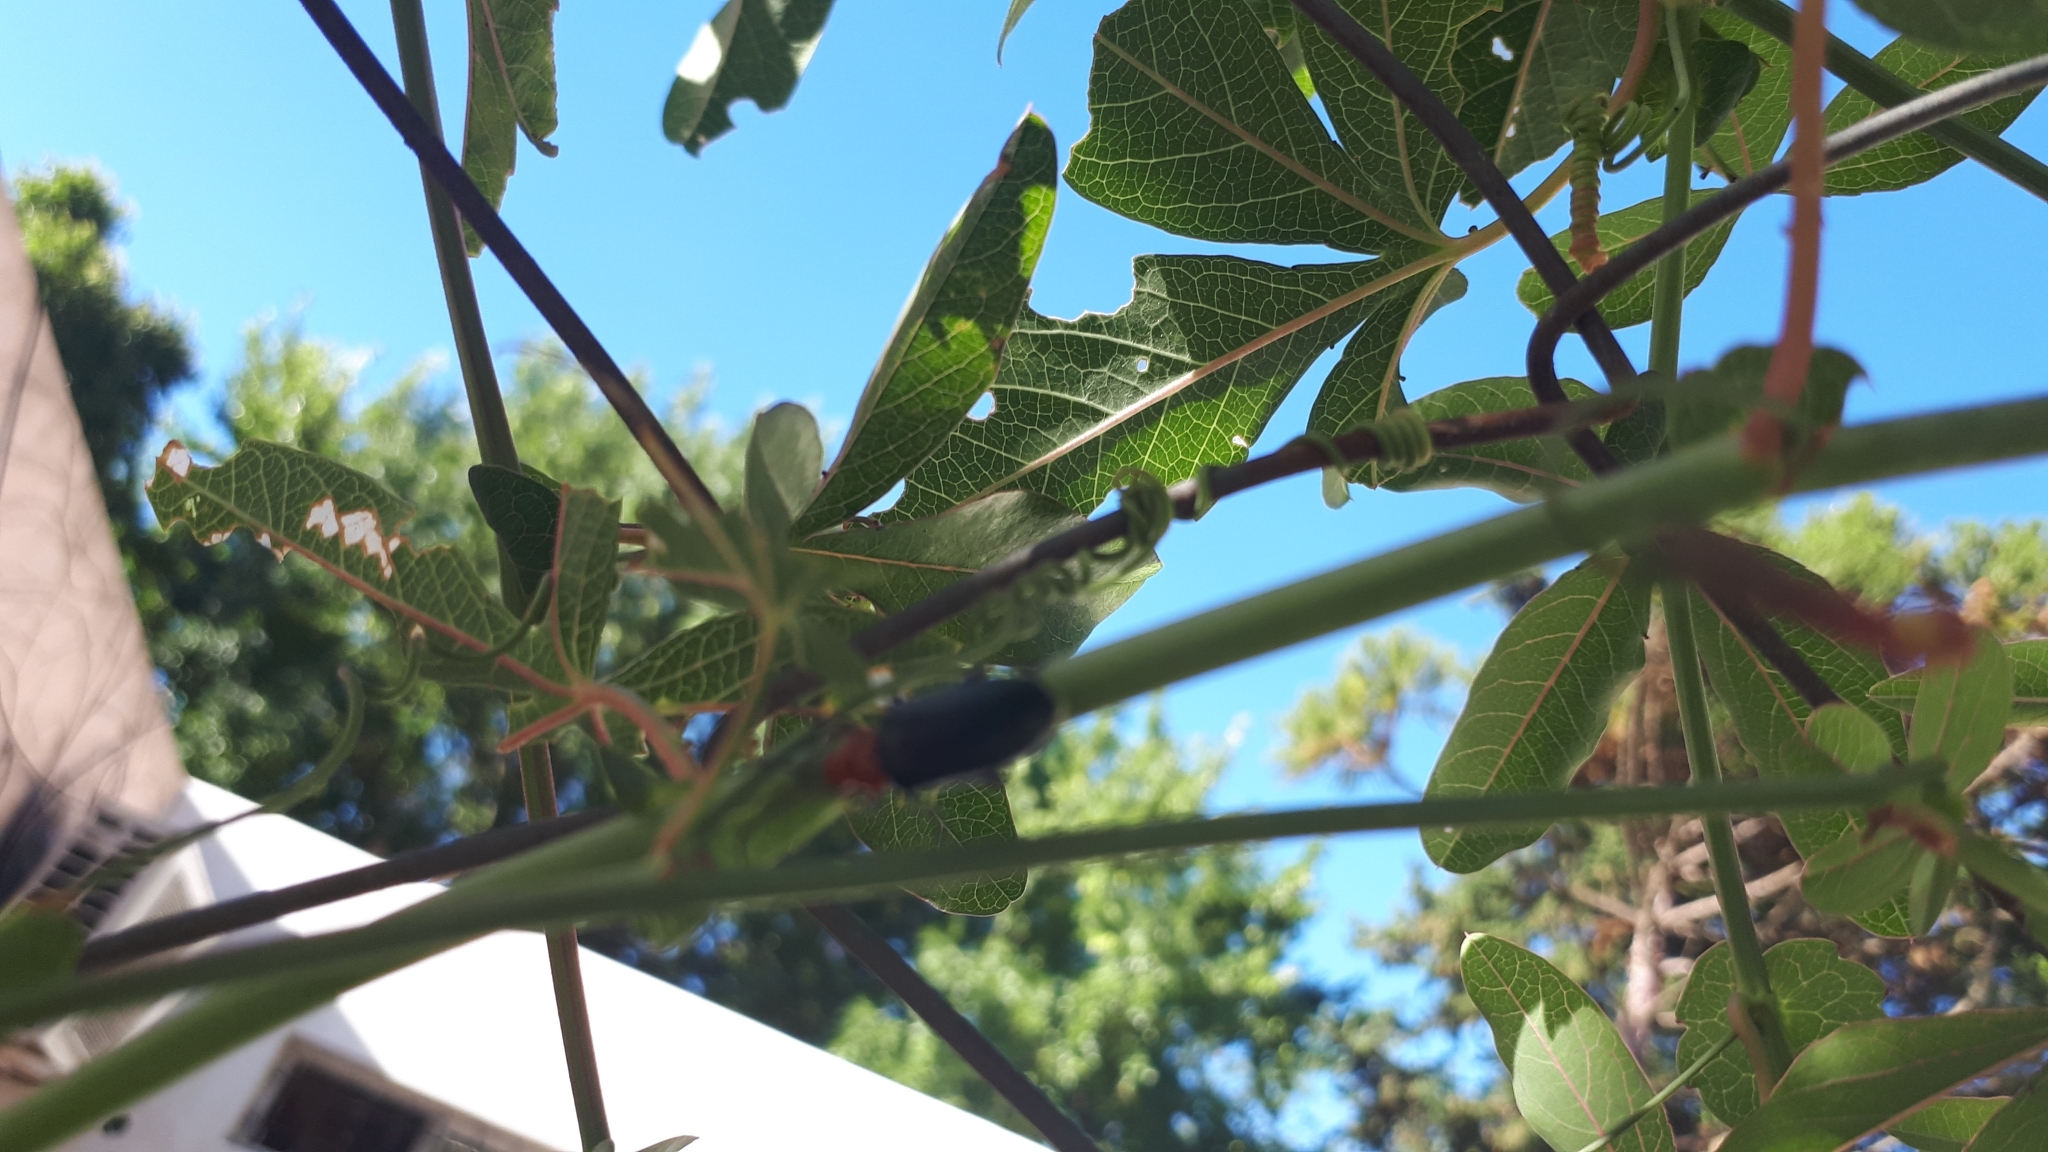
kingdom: Animalia
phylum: Arthropoda
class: Insecta
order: Coleoptera
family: Chrysomelidae
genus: Cacoscelis
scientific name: Cacoscelis
